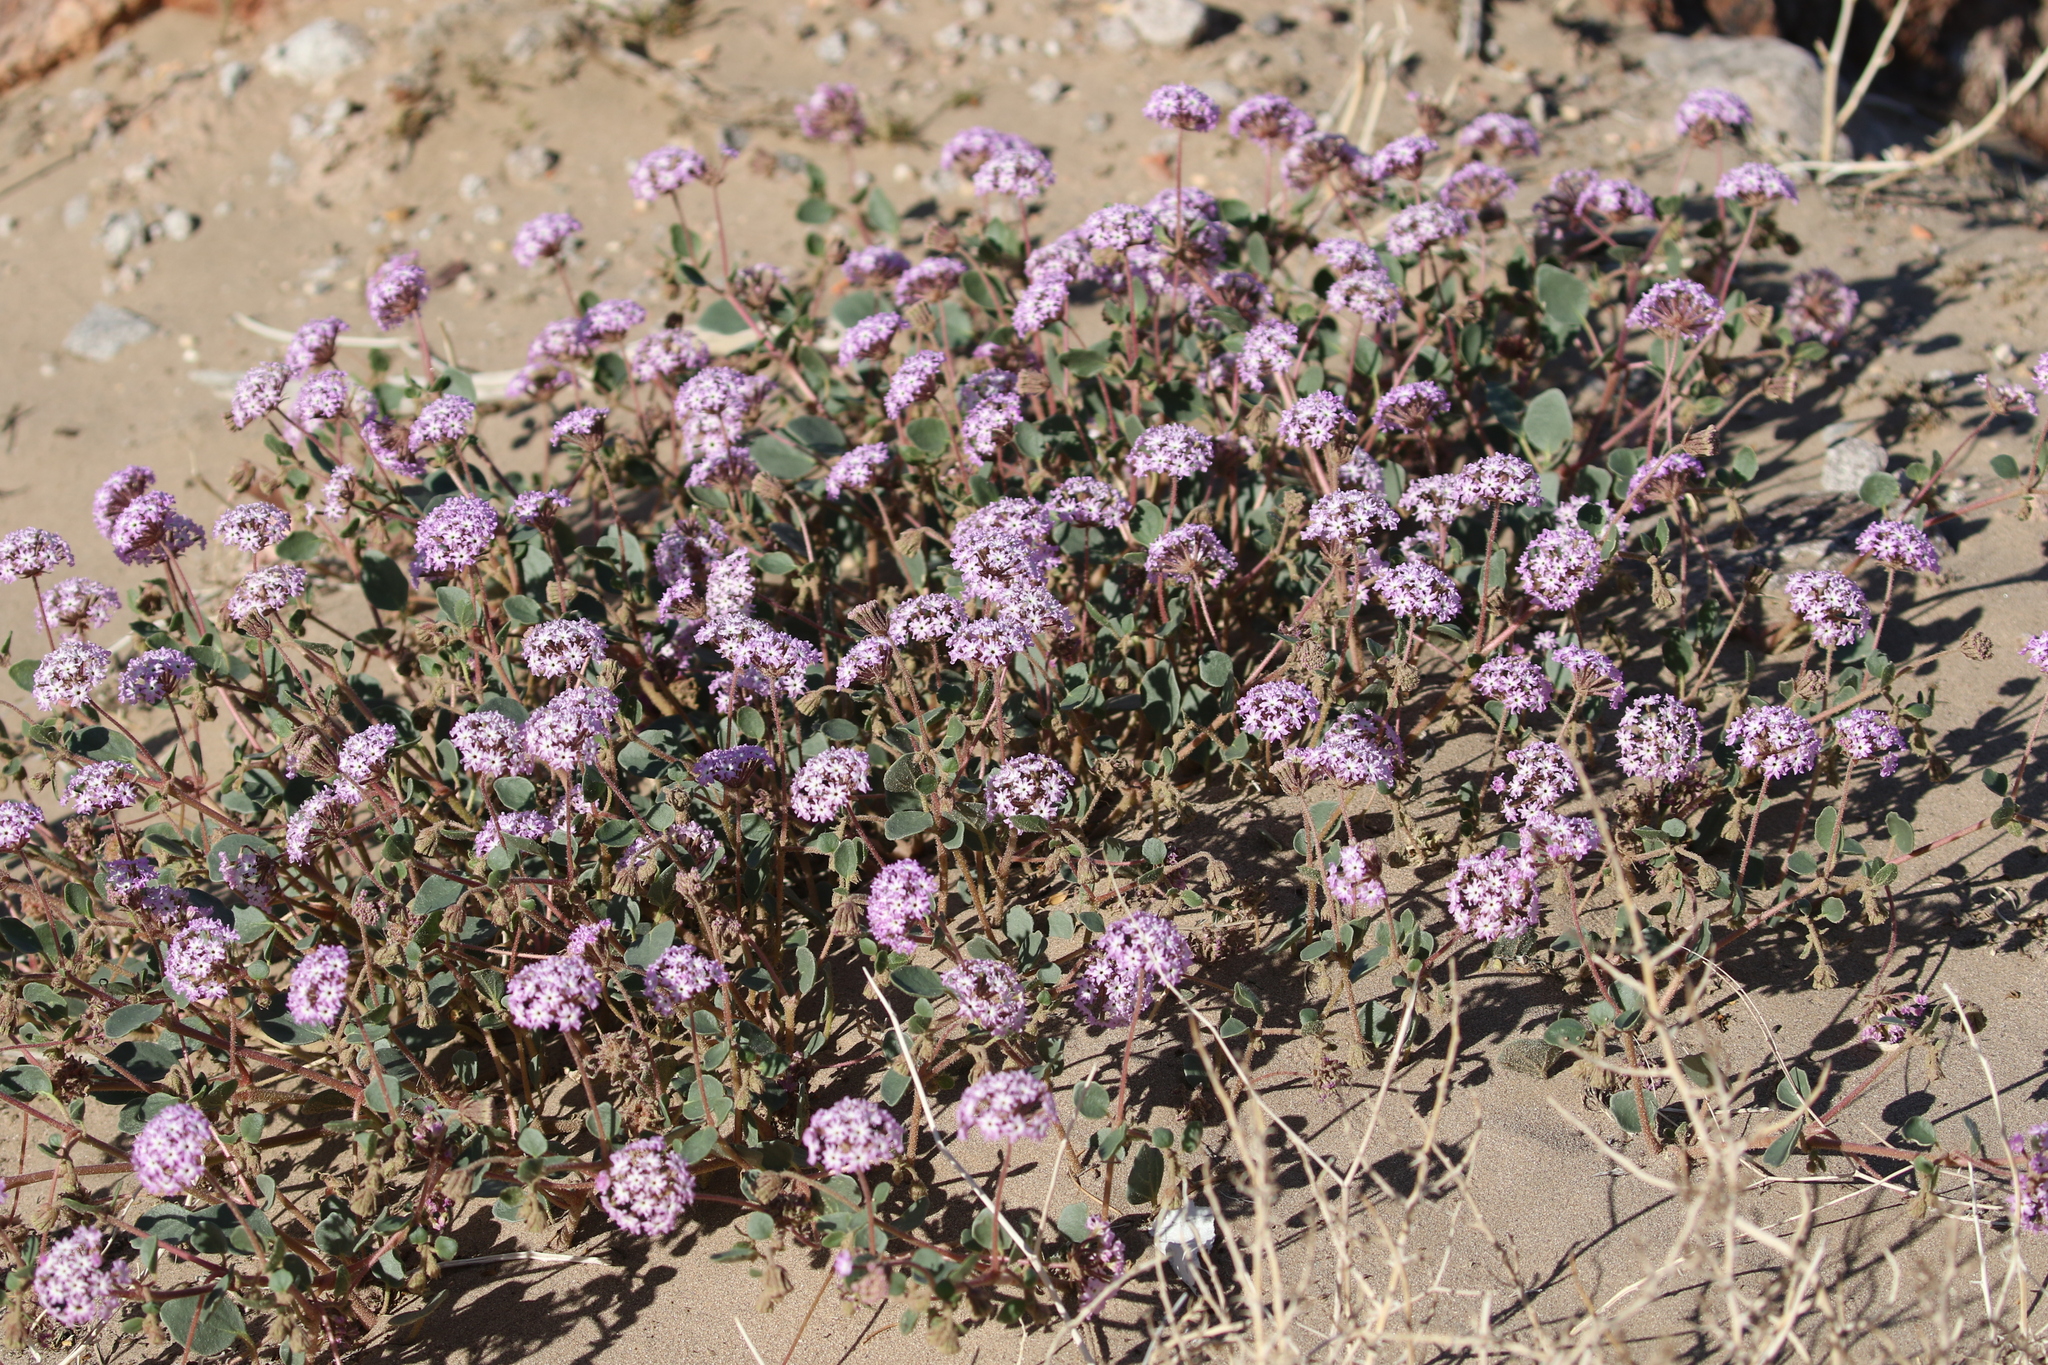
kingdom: Plantae
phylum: Tracheophyta
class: Magnoliopsida
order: Caryophyllales
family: Nyctaginaceae
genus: Abronia
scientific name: Abronia villosa
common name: Desert sand-verbena
